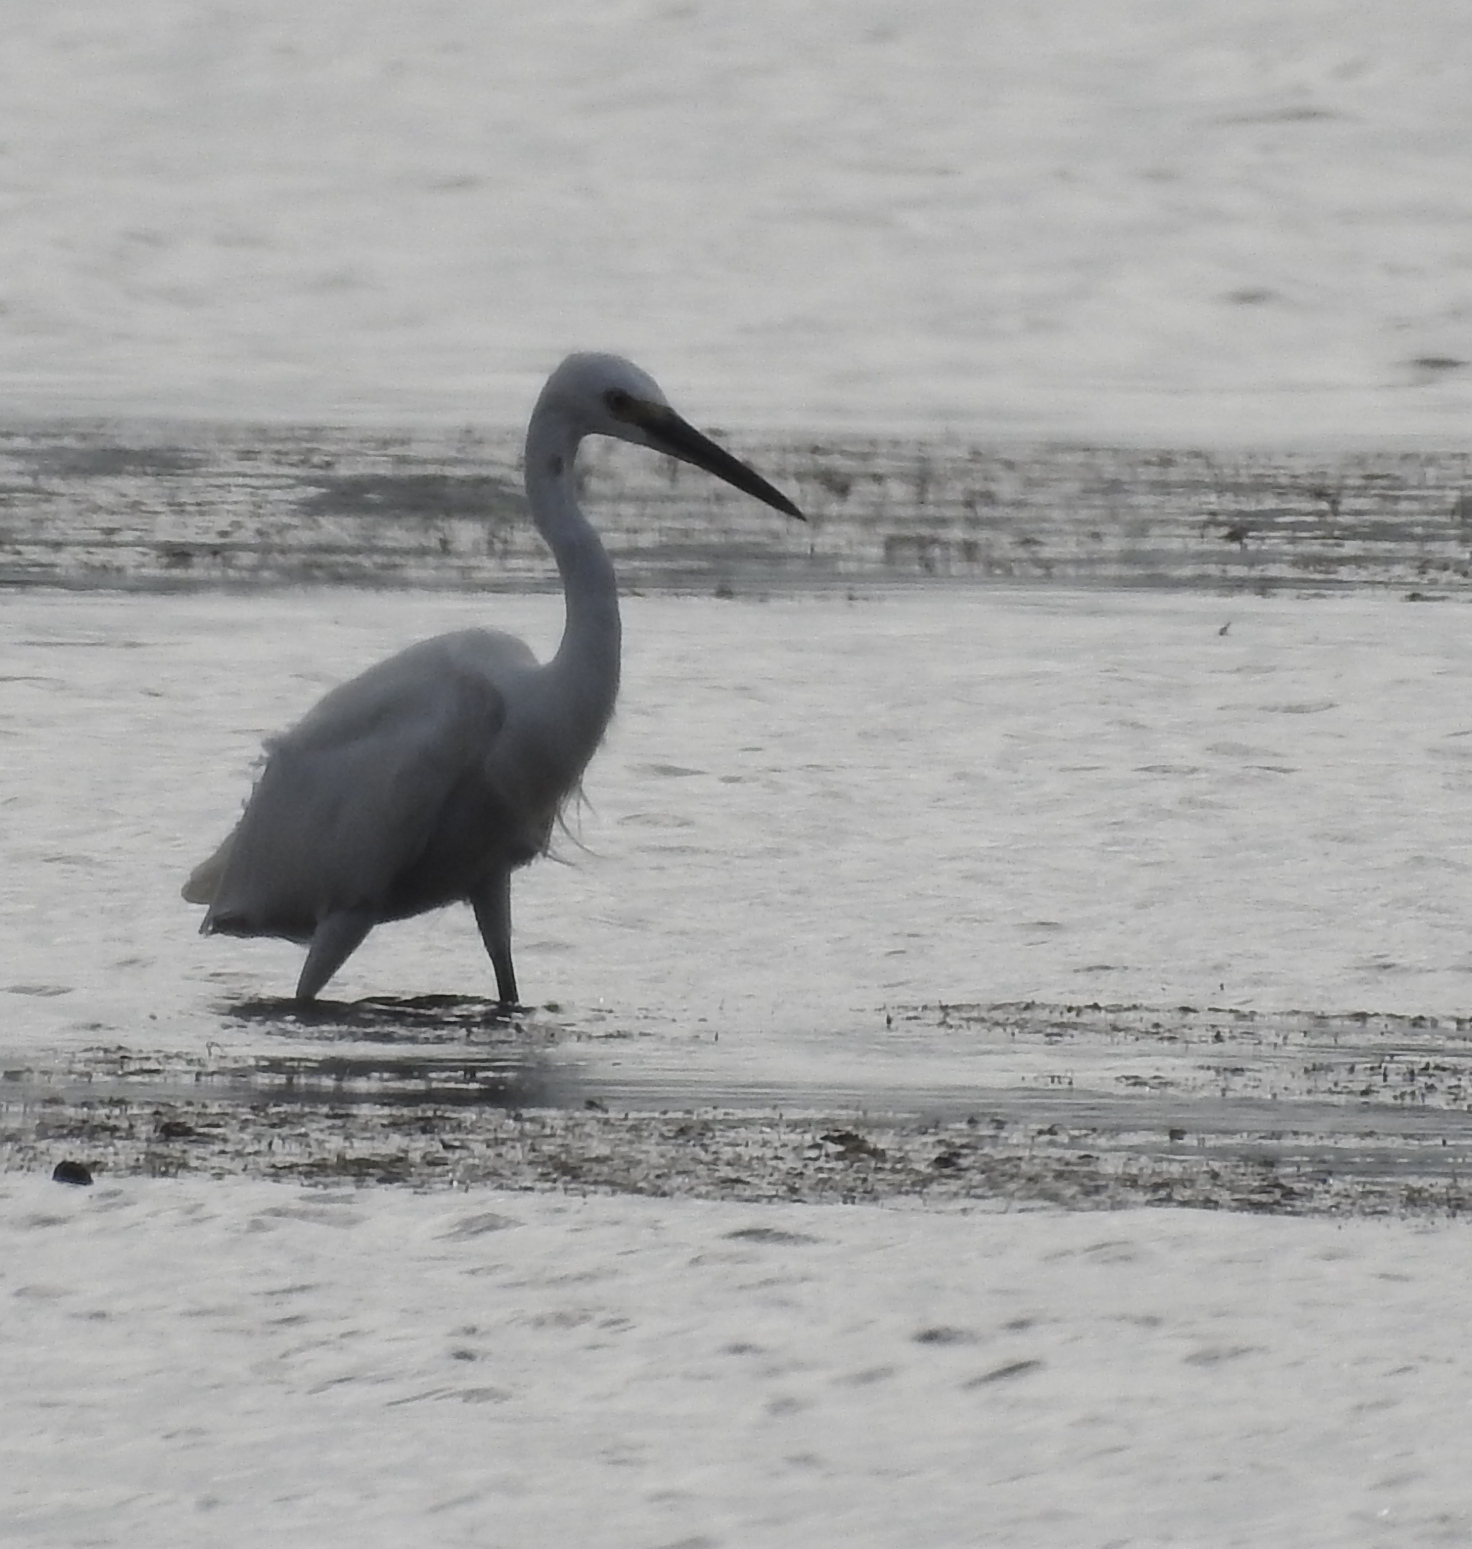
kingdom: Animalia
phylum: Chordata
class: Aves
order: Pelecaniformes
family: Ardeidae
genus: Egretta
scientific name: Egretta garzetta
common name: Little egret
